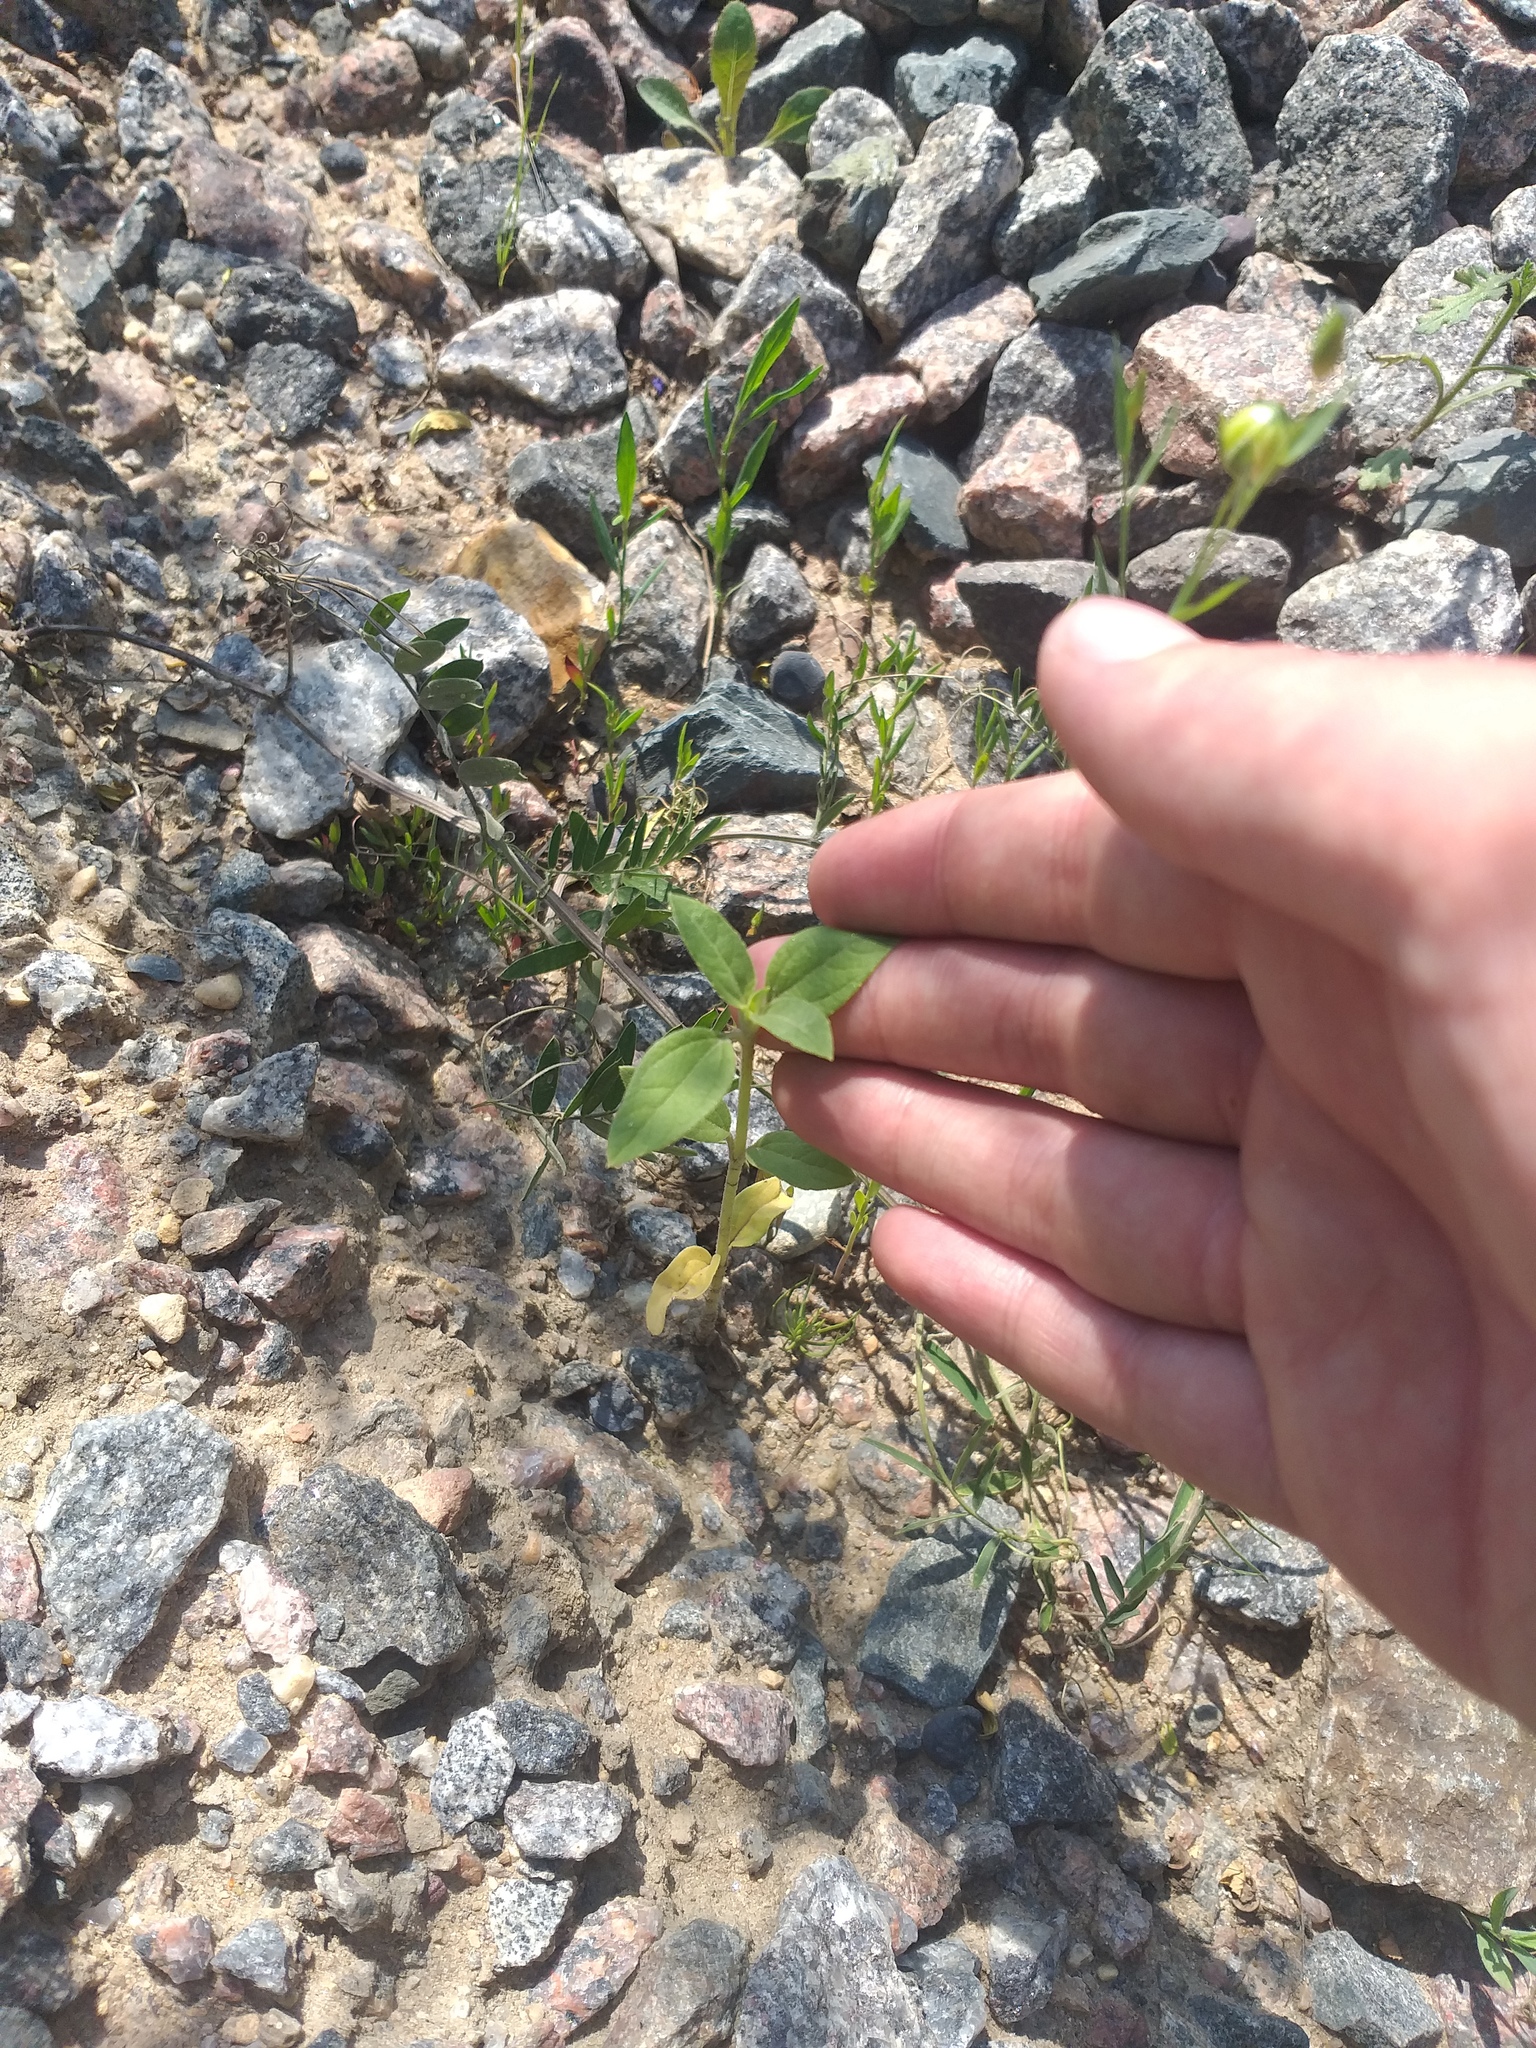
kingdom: Plantae
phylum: Tracheophyta
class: Magnoliopsida
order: Asterales
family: Asteraceae
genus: Helianthus
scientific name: Helianthus annuus
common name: Sunflower
